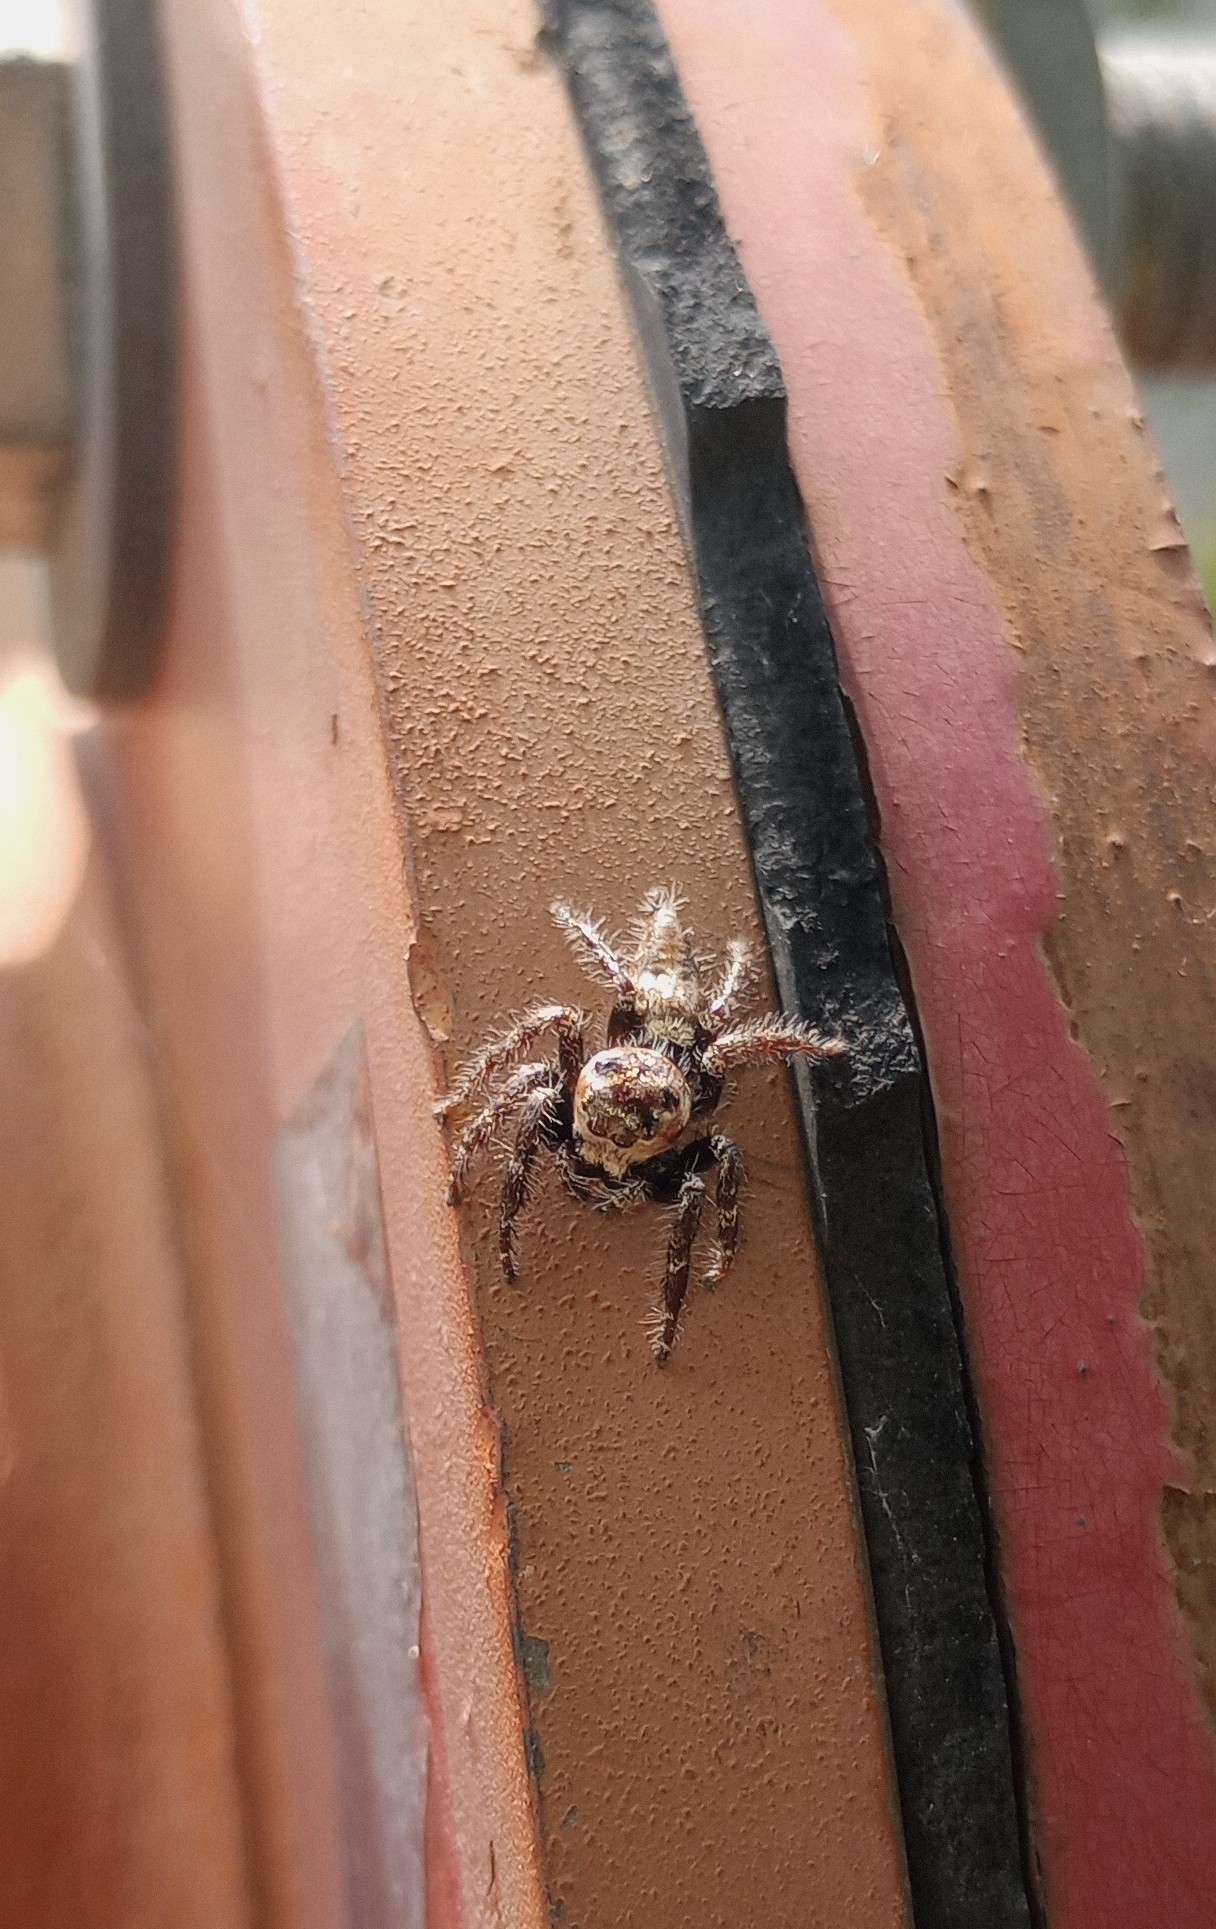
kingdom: Animalia
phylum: Arthropoda
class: Arachnida
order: Araneae
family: Salticidae
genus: Hyllus
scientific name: Hyllus semicupreus
